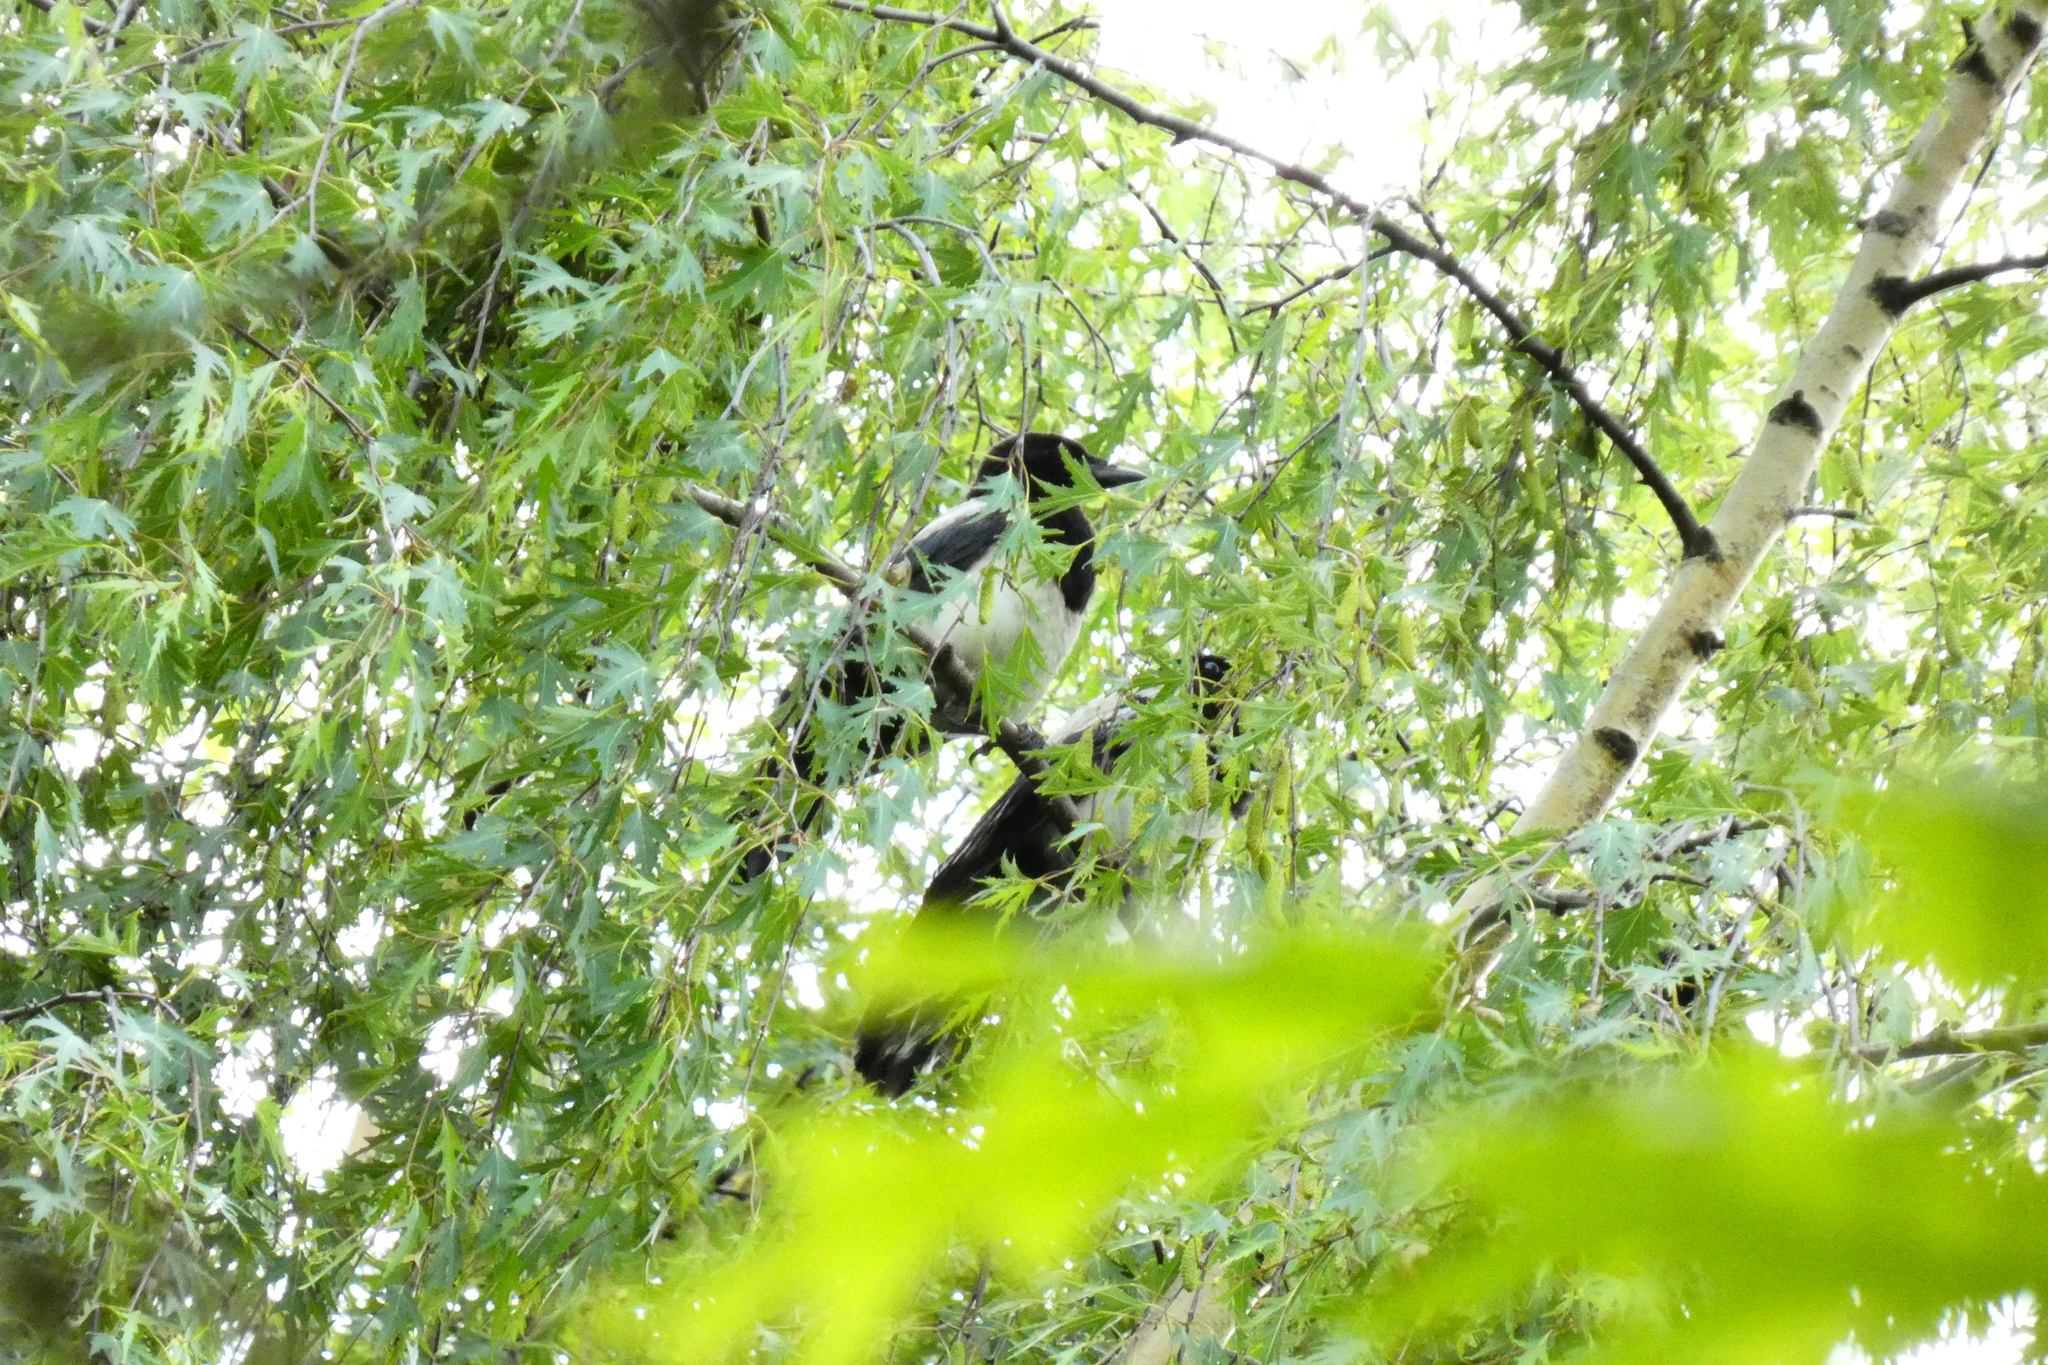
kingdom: Animalia
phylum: Chordata
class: Aves
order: Passeriformes
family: Corvidae
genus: Pica
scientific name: Pica pica
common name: Eurasian magpie
